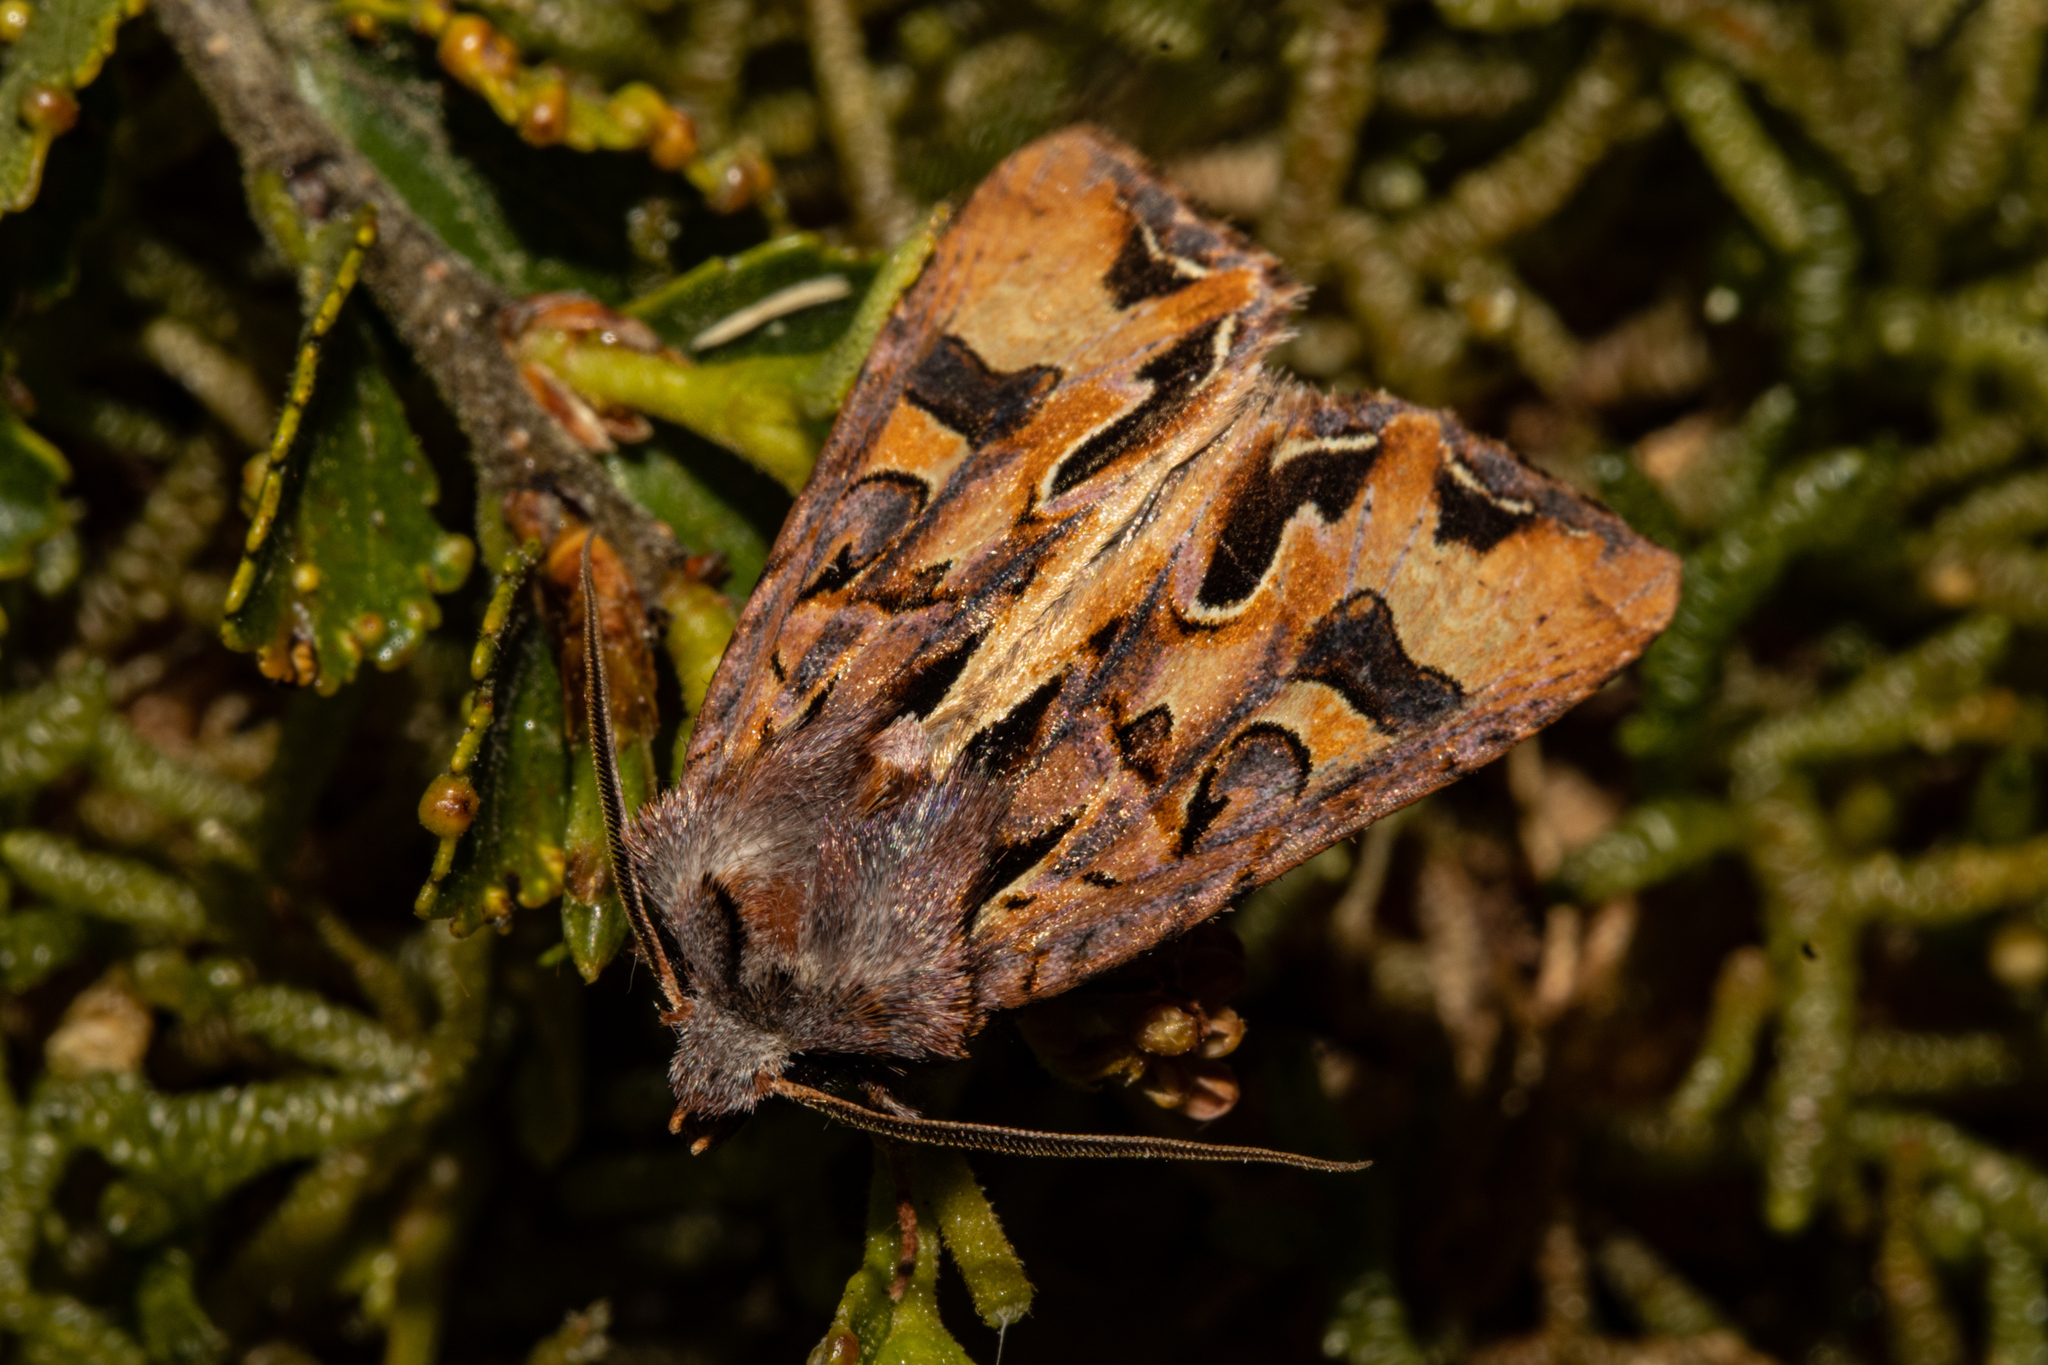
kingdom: Animalia
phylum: Arthropoda
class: Insecta
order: Lepidoptera
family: Noctuidae
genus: Ichneutica
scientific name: Ichneutica
